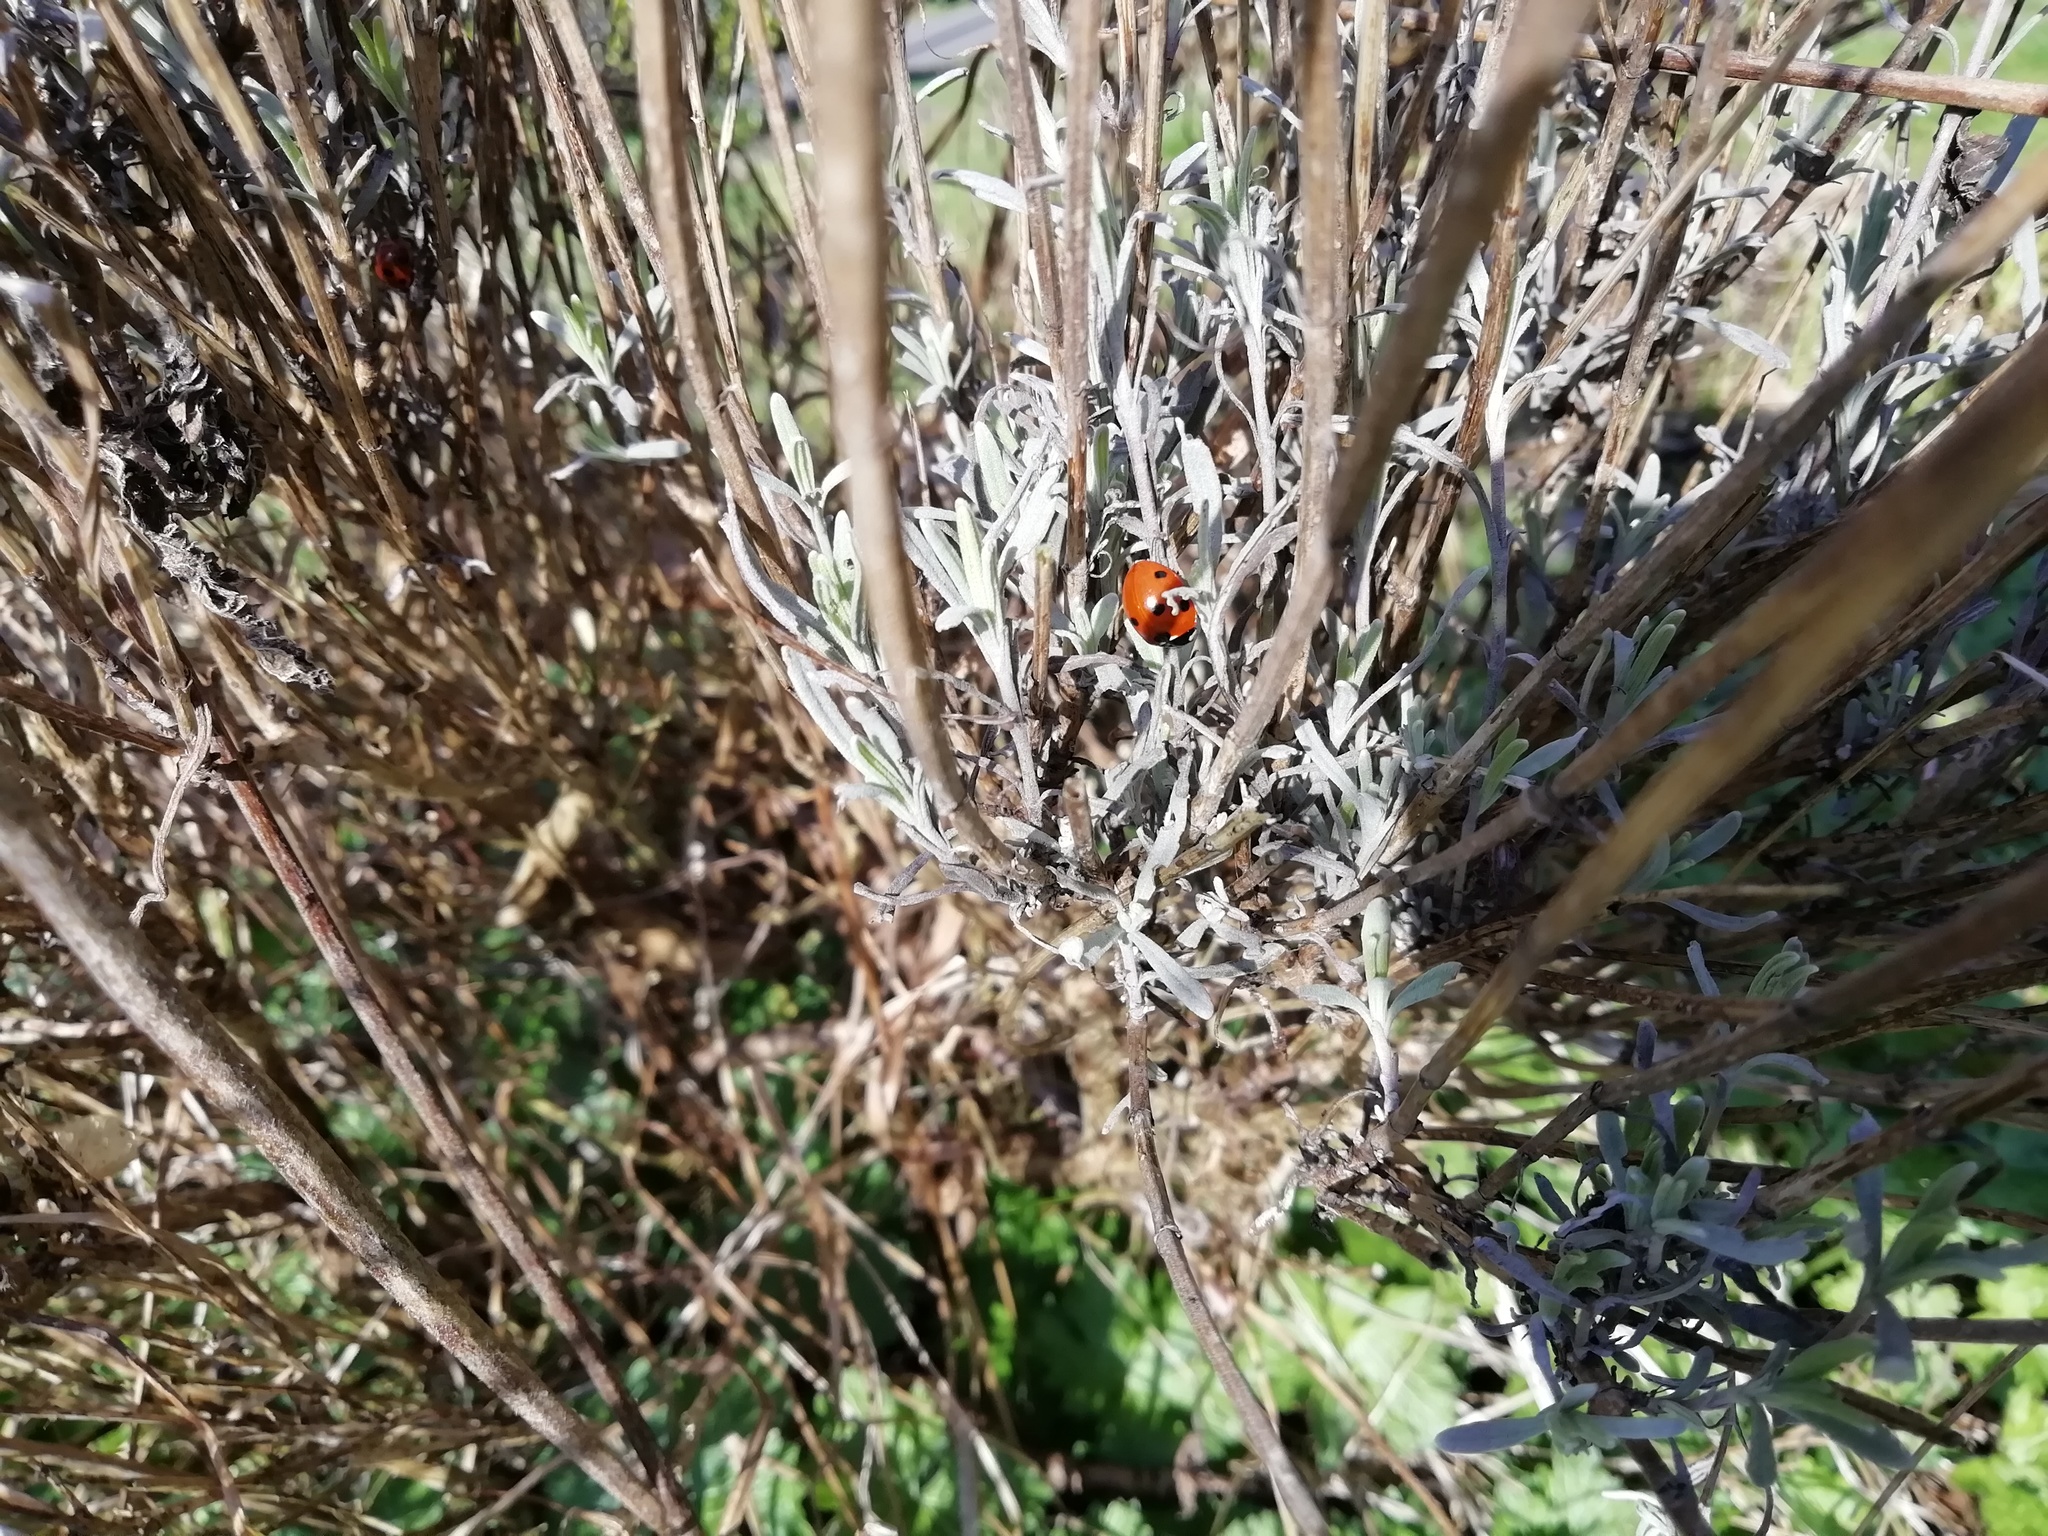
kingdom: Animalia
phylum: Arthropoda
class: Insecta
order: Coleoptera
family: Coccinellidae
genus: Coccinella
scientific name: Coccinella septempunctata
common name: Sevenspotted lady beetle
